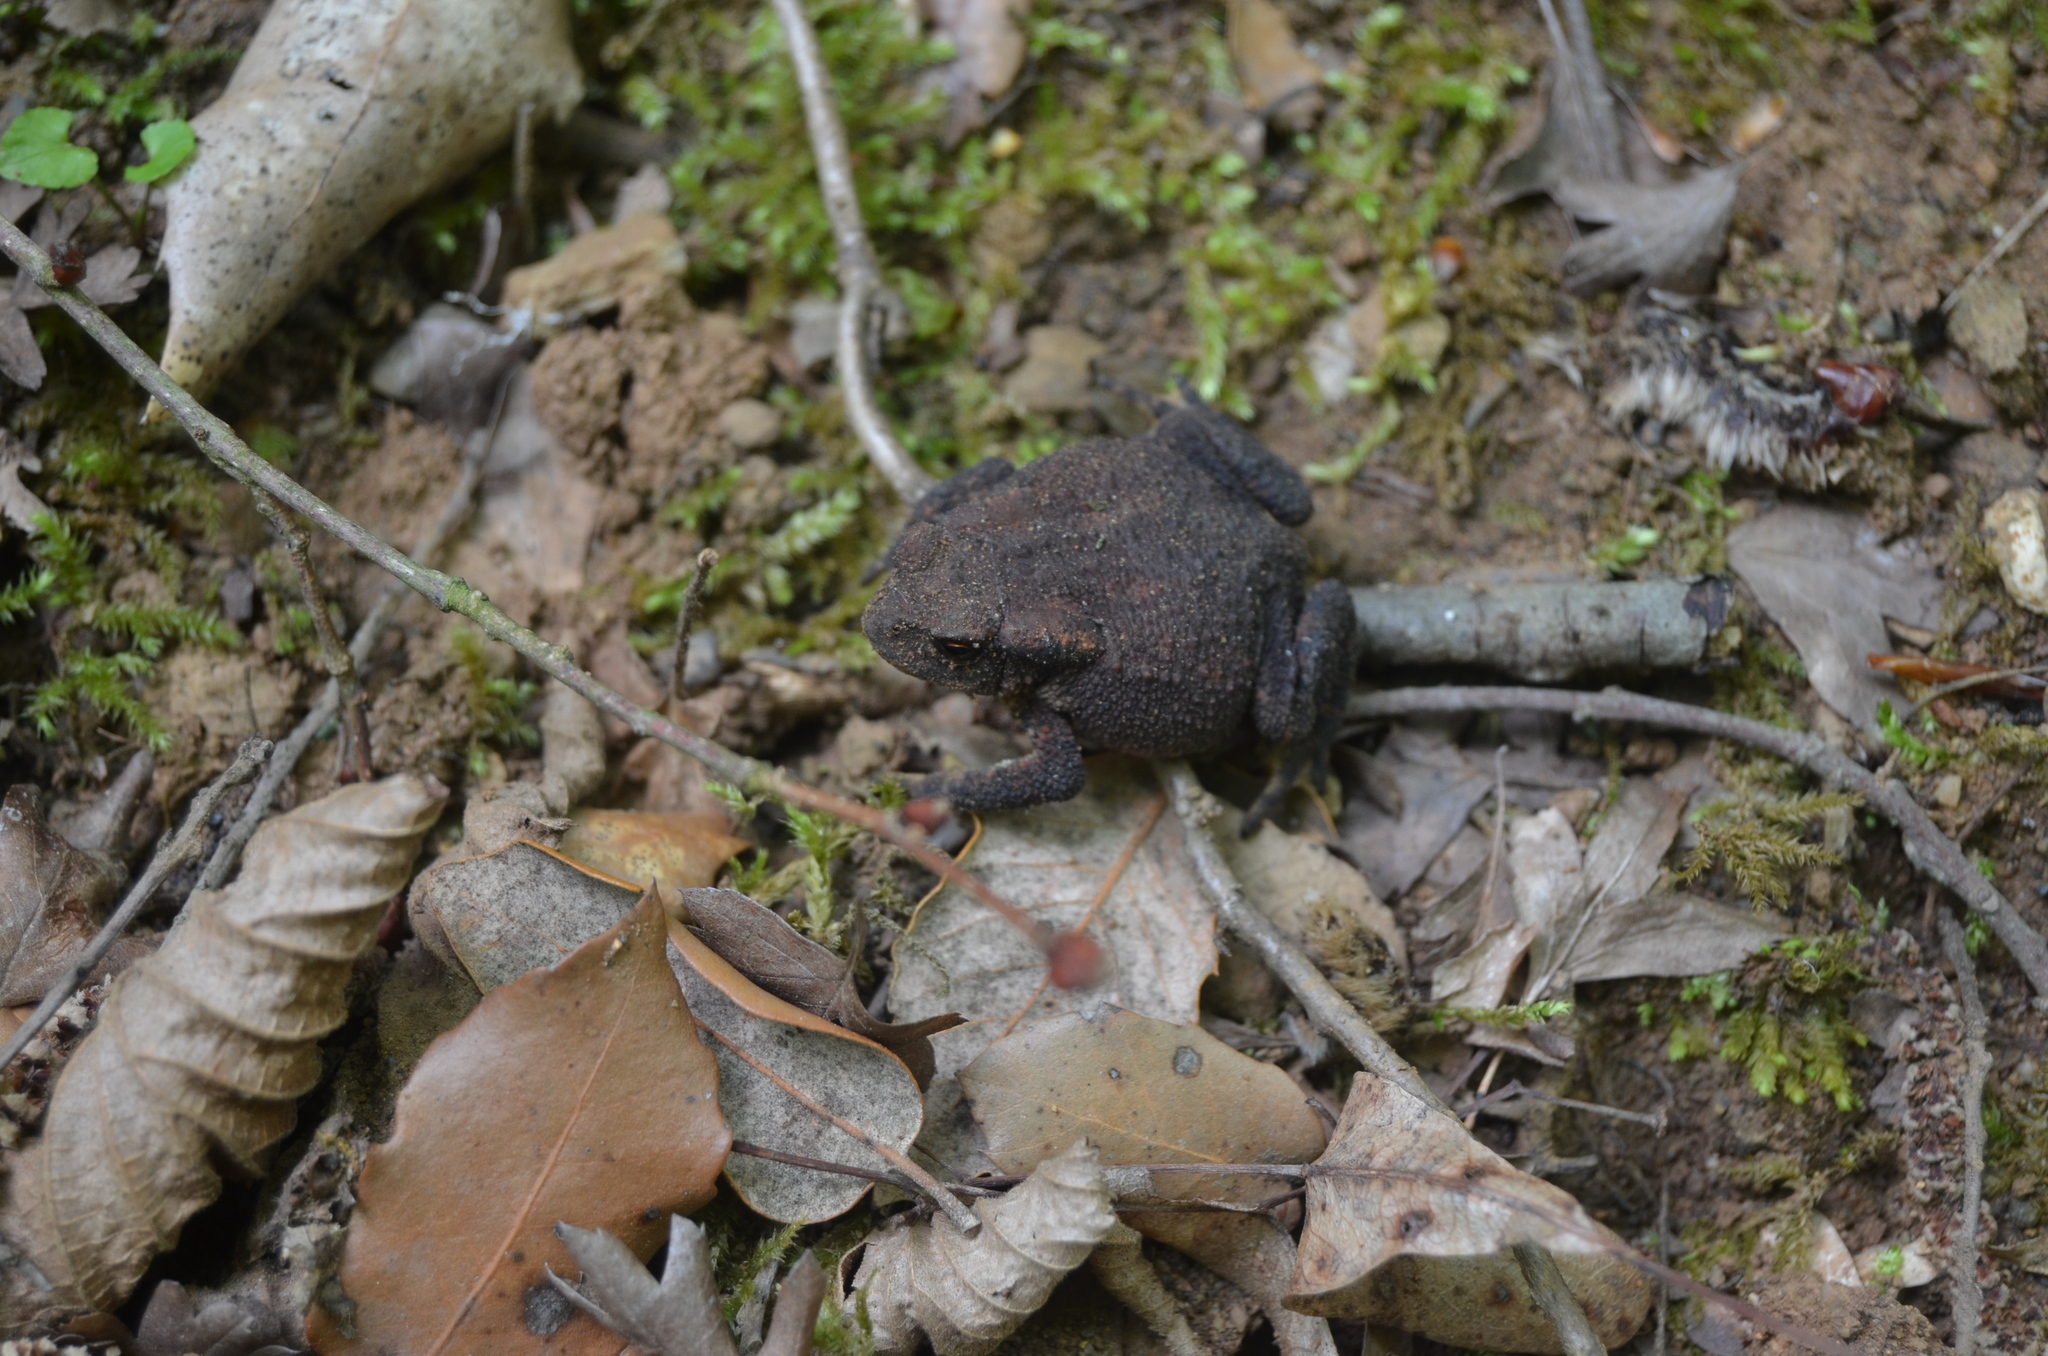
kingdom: Animalia
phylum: Chordata
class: Amphibia
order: Anura
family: Bufonidae
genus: Bufo
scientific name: Bufo spinosus
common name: Western common toad
